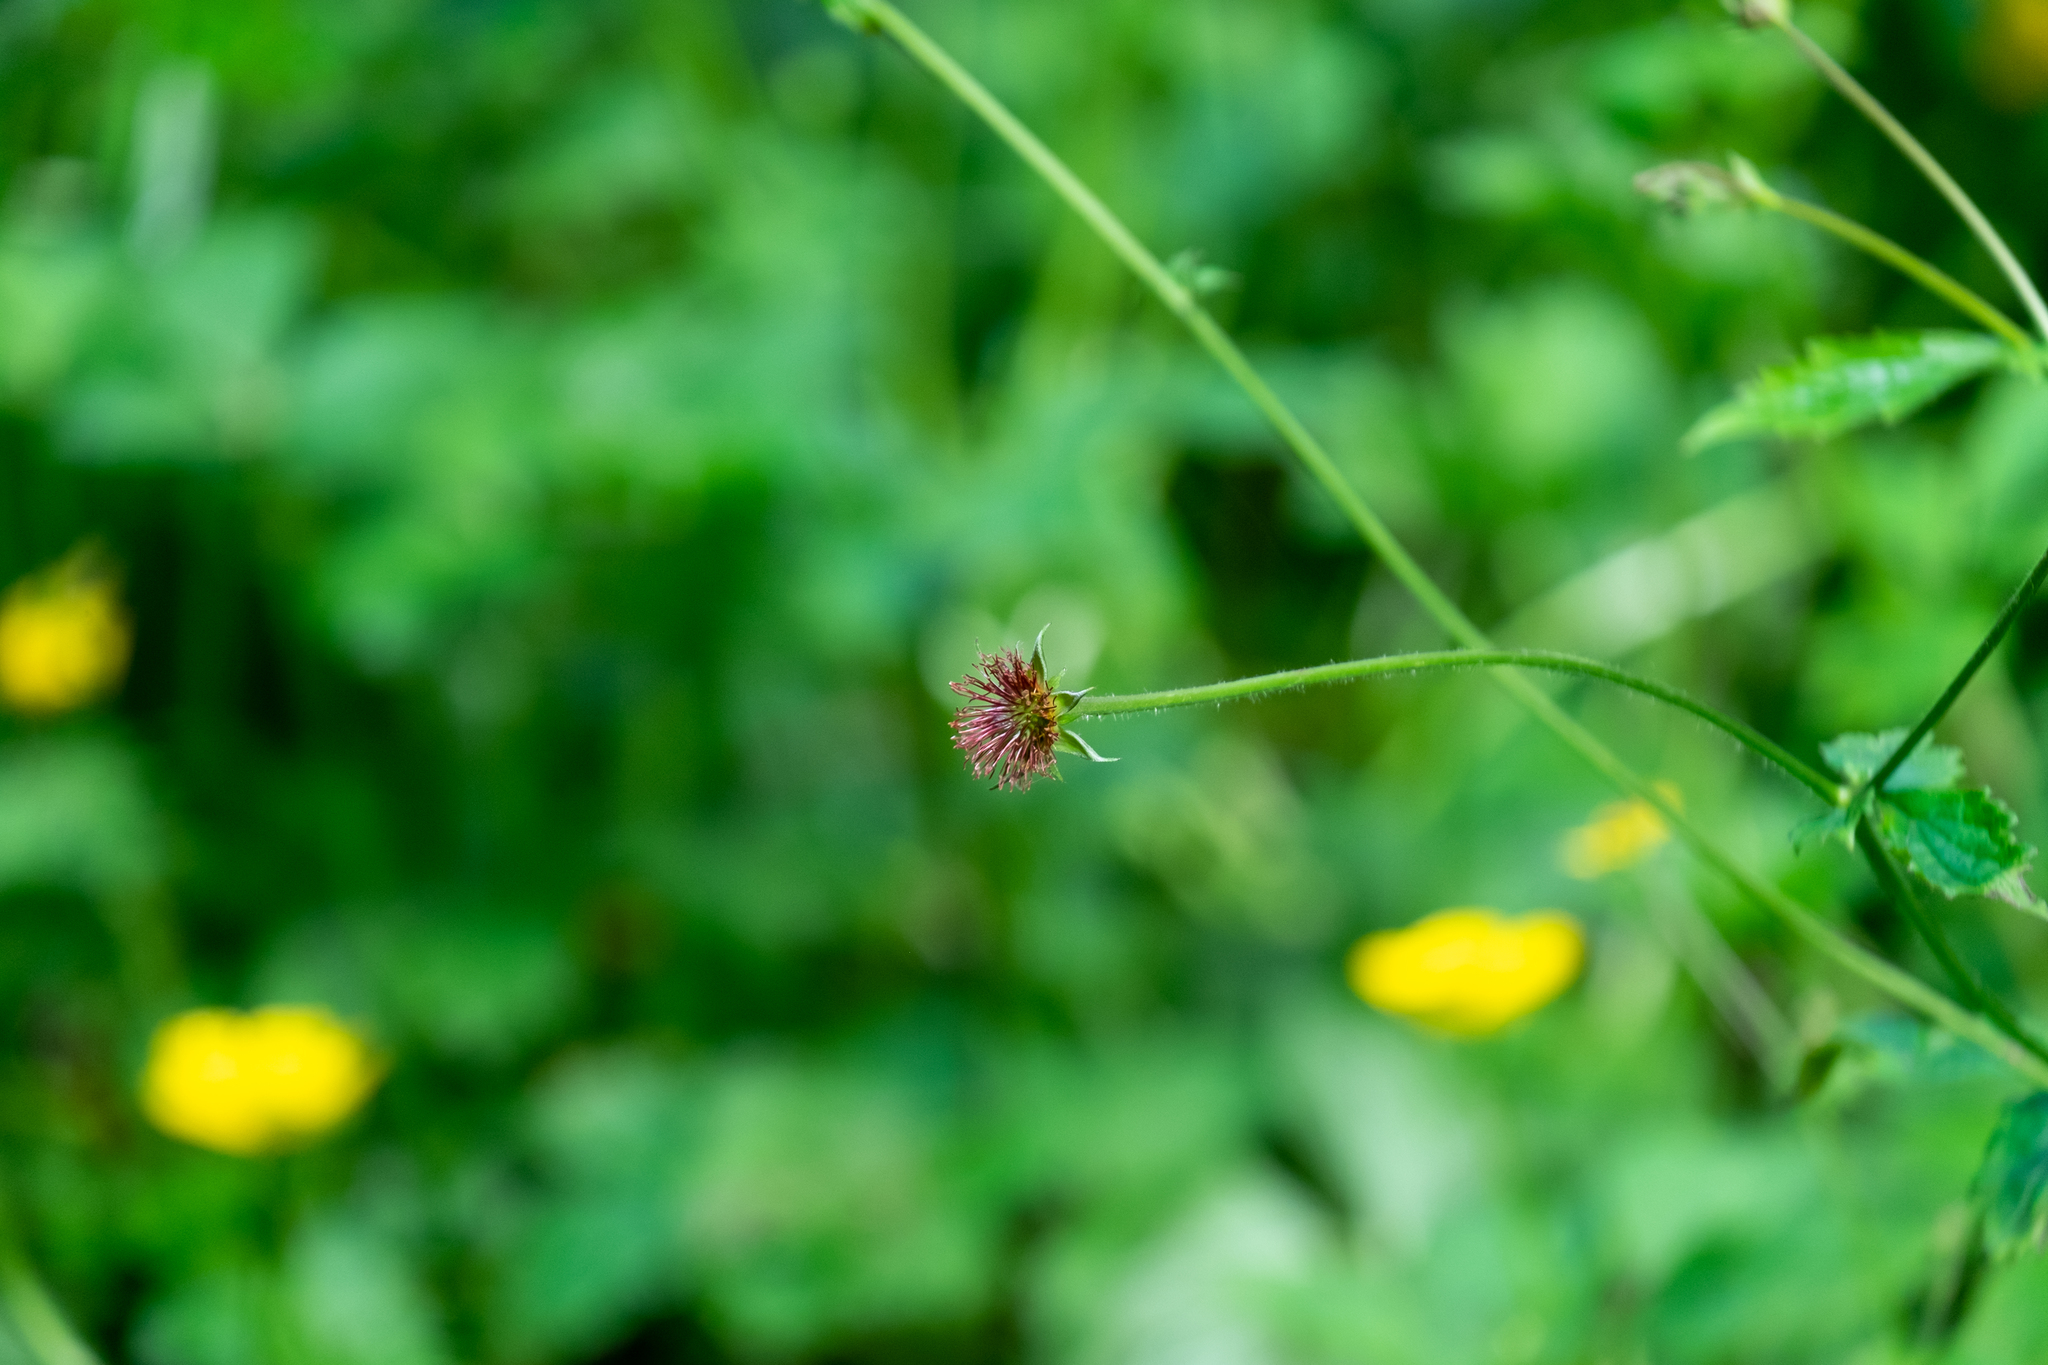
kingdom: Plantae
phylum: Tracheophyta
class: Magnoliopsida
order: Rosales
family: Rosaceae
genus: Geum
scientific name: Geum urbanum
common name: Wood avens
